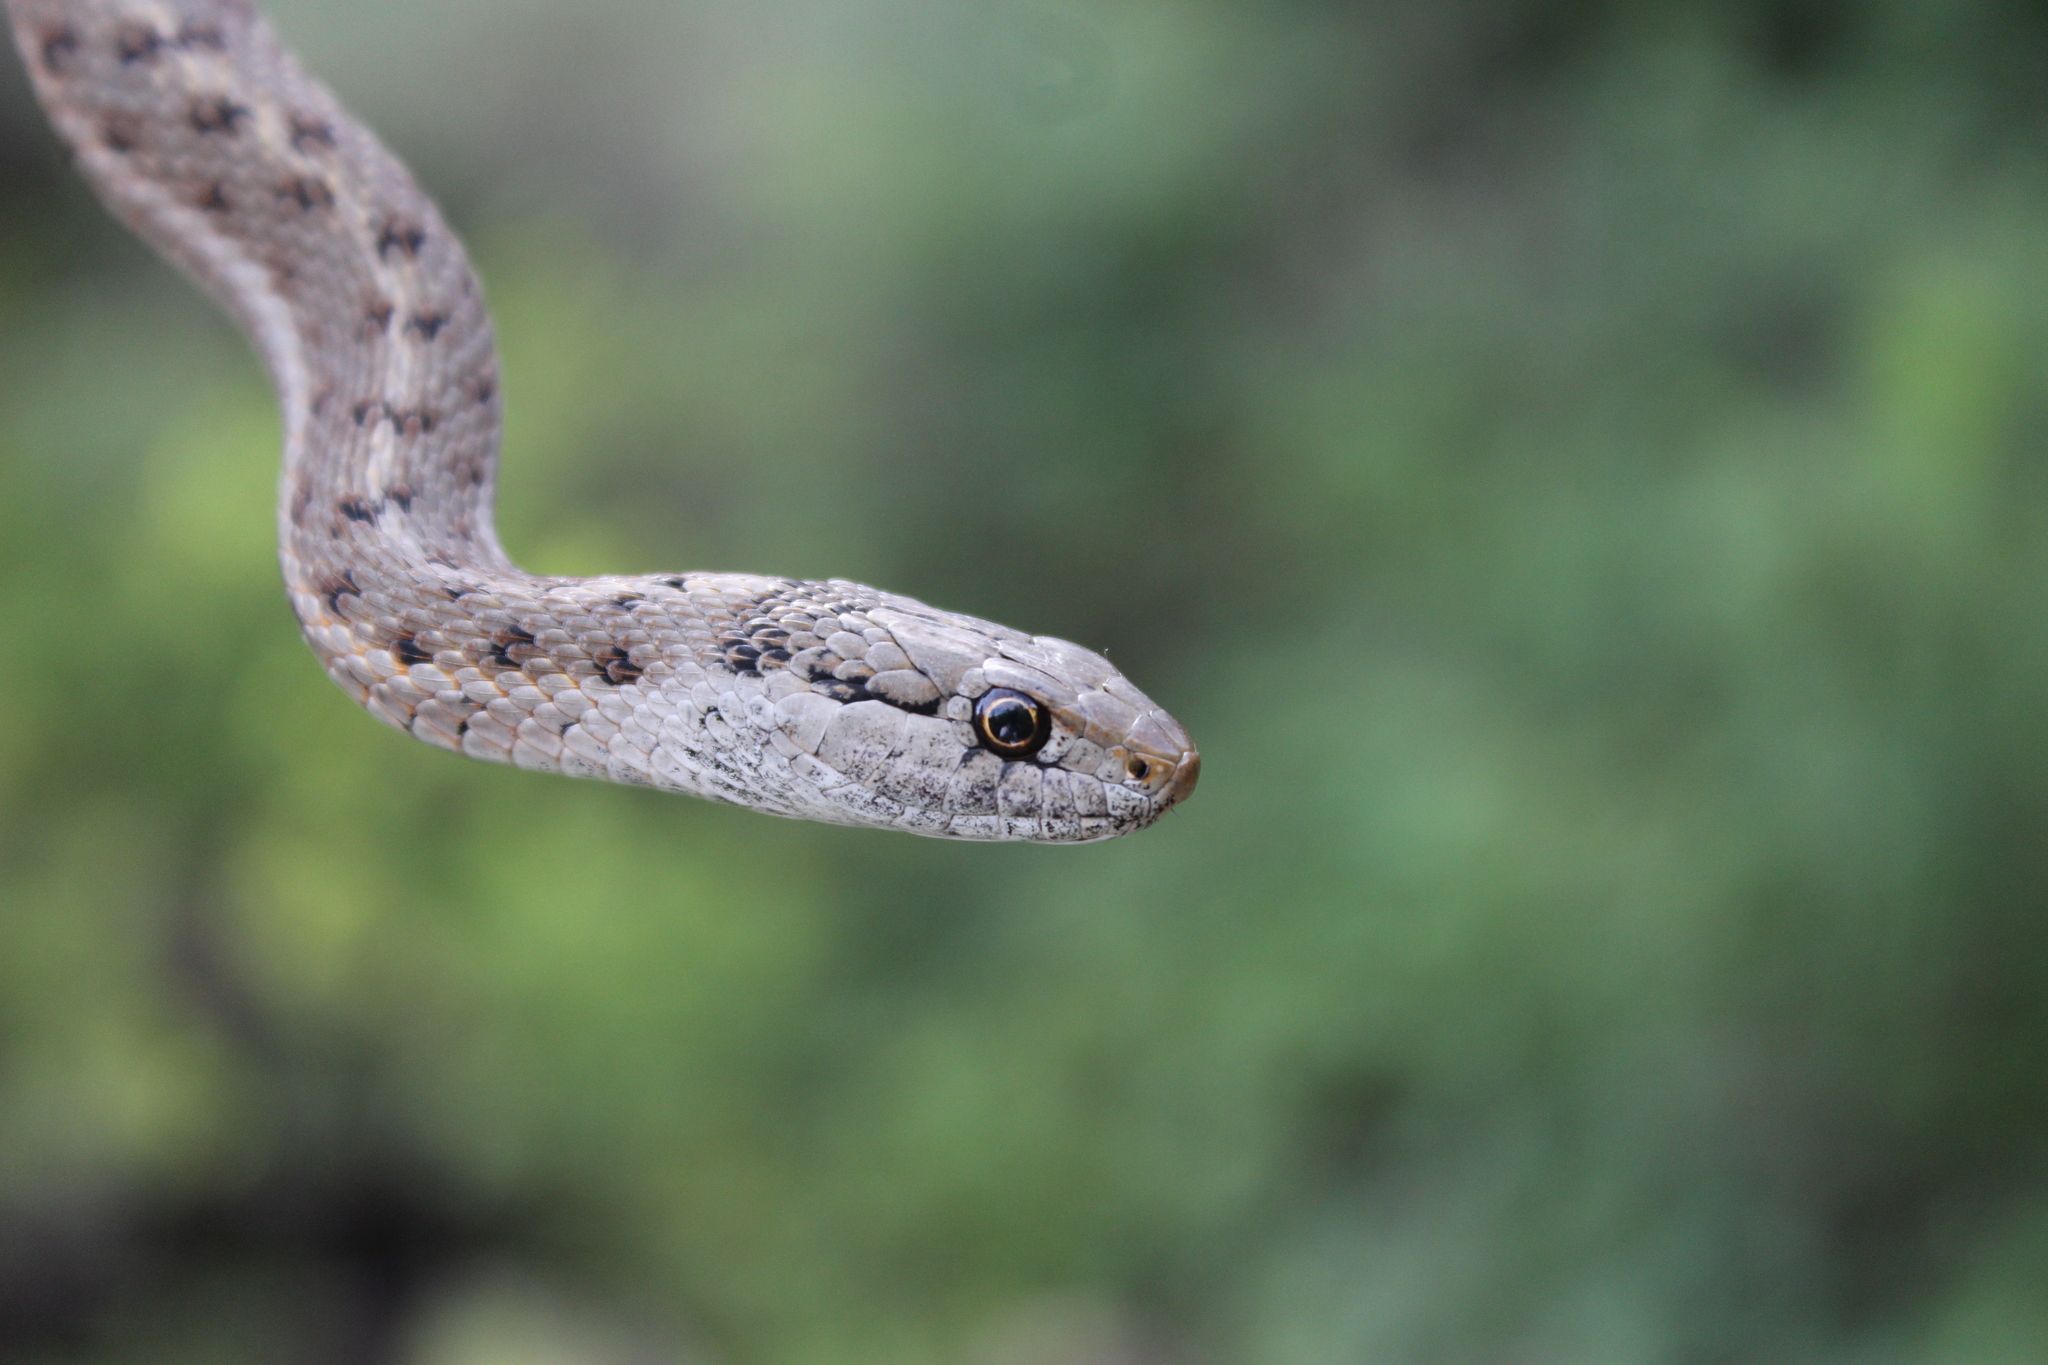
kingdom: Animalia
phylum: Chordata
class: Squamata
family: Colubridae
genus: Thamnophis
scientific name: Thamnophis elegans
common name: Western terrestrial garter snake
